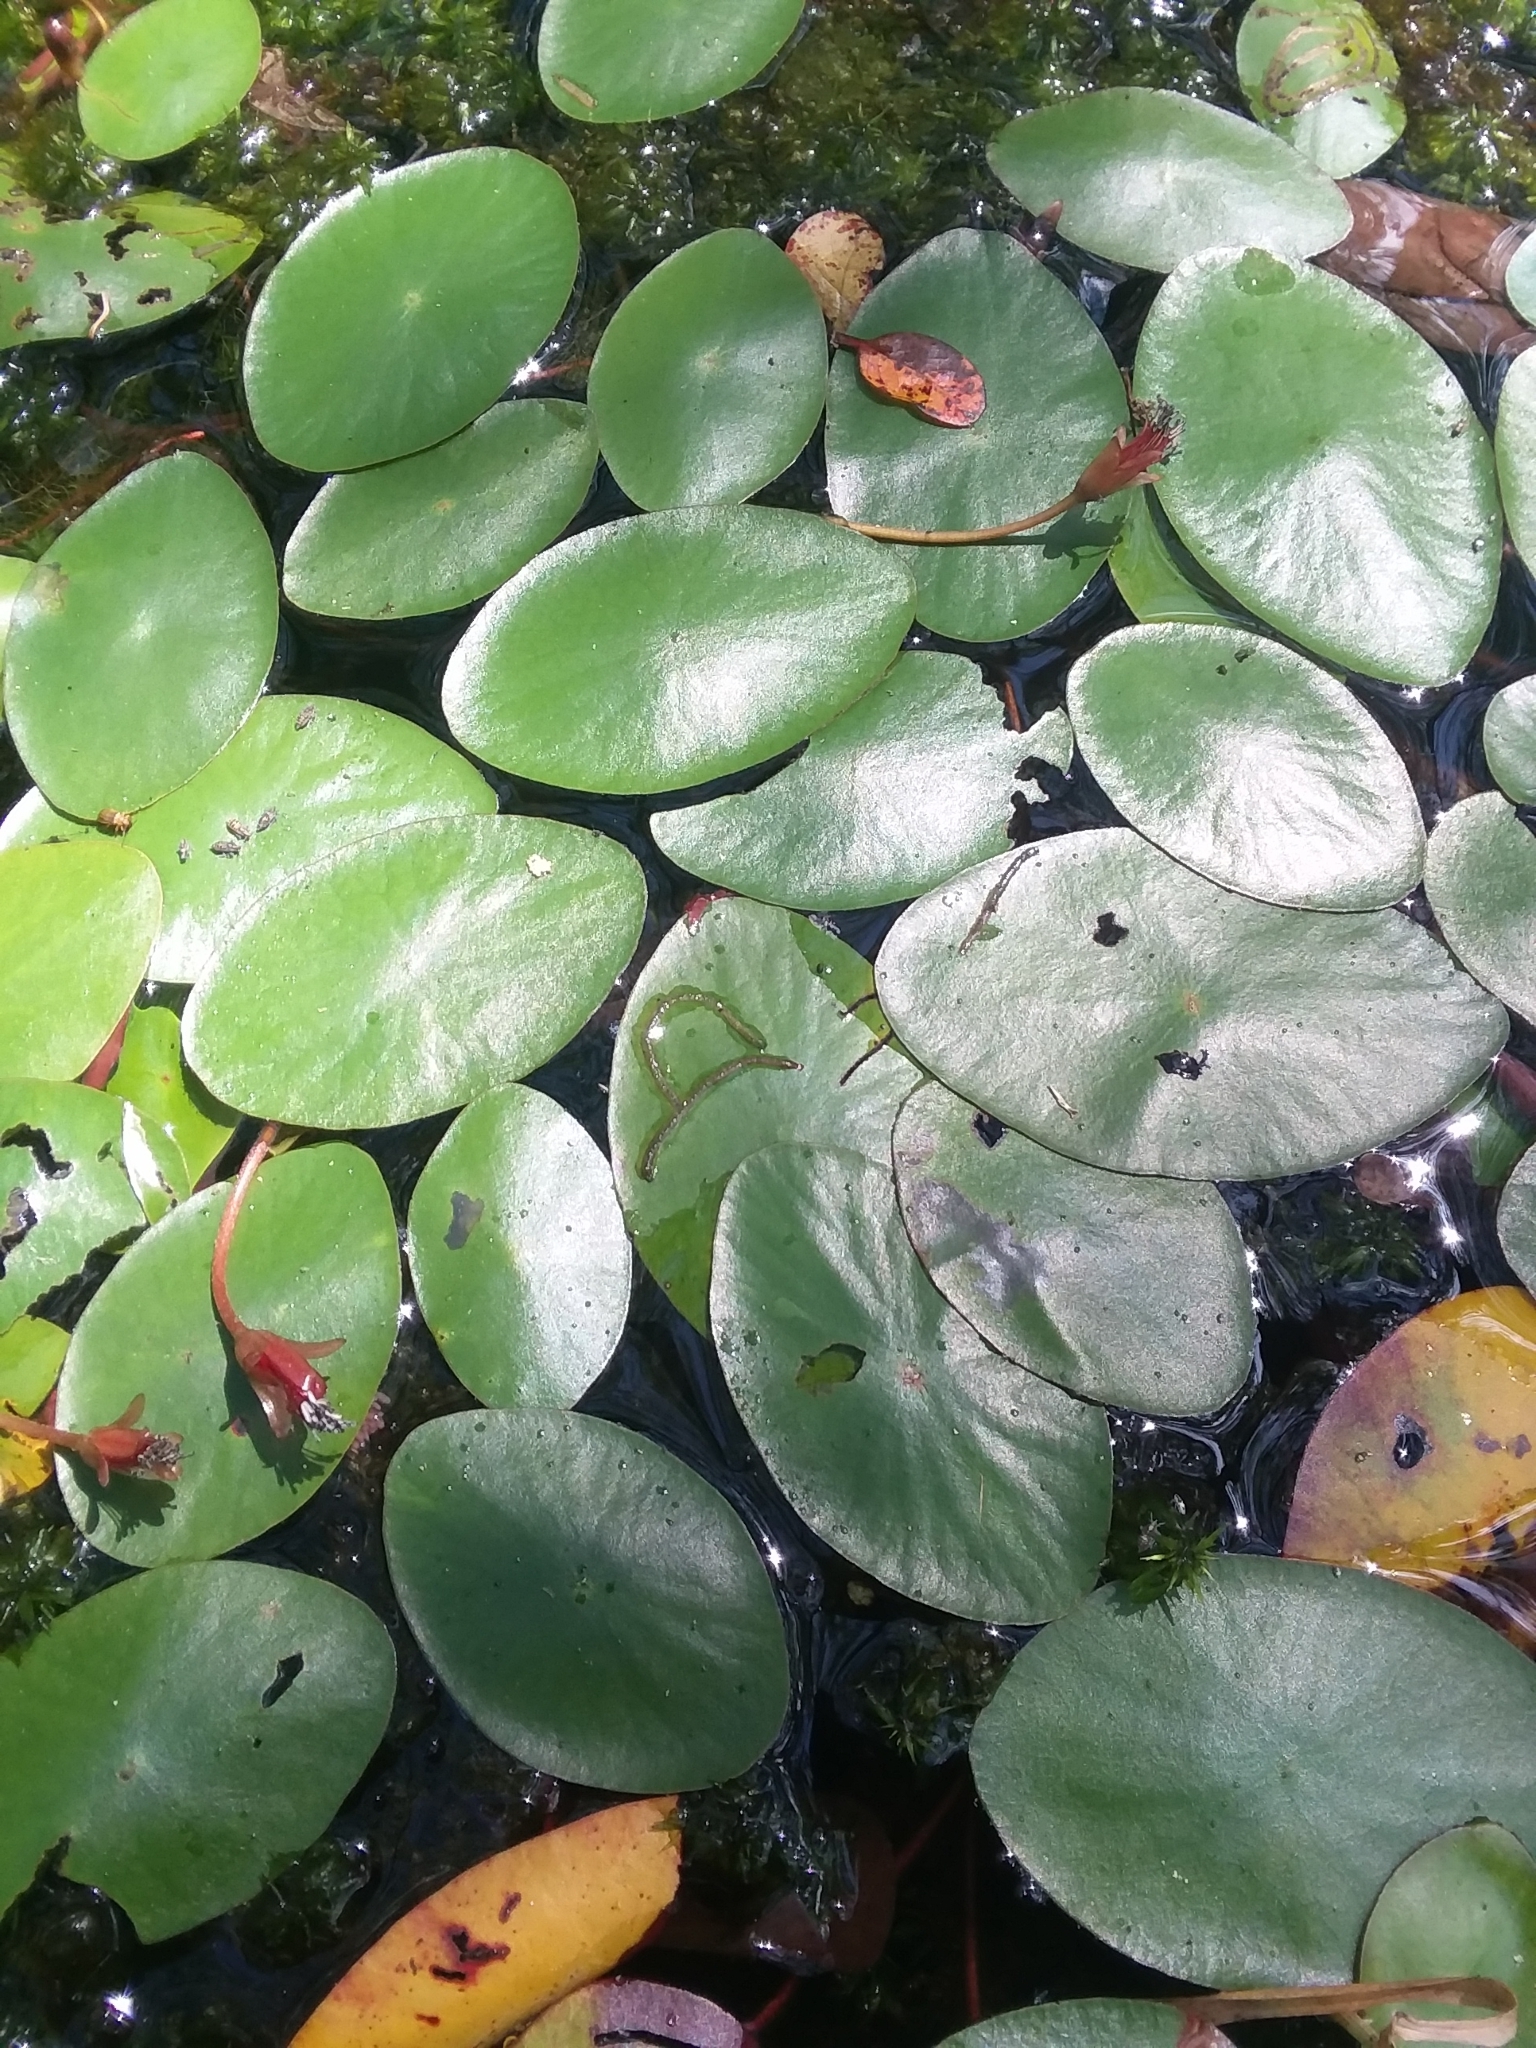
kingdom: Plantae
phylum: Tracheophyta
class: Magnoliopsida
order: Nymphaeales
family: Cabombaceae
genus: Brasenia
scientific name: Brasenia schreberi
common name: Water-shield
